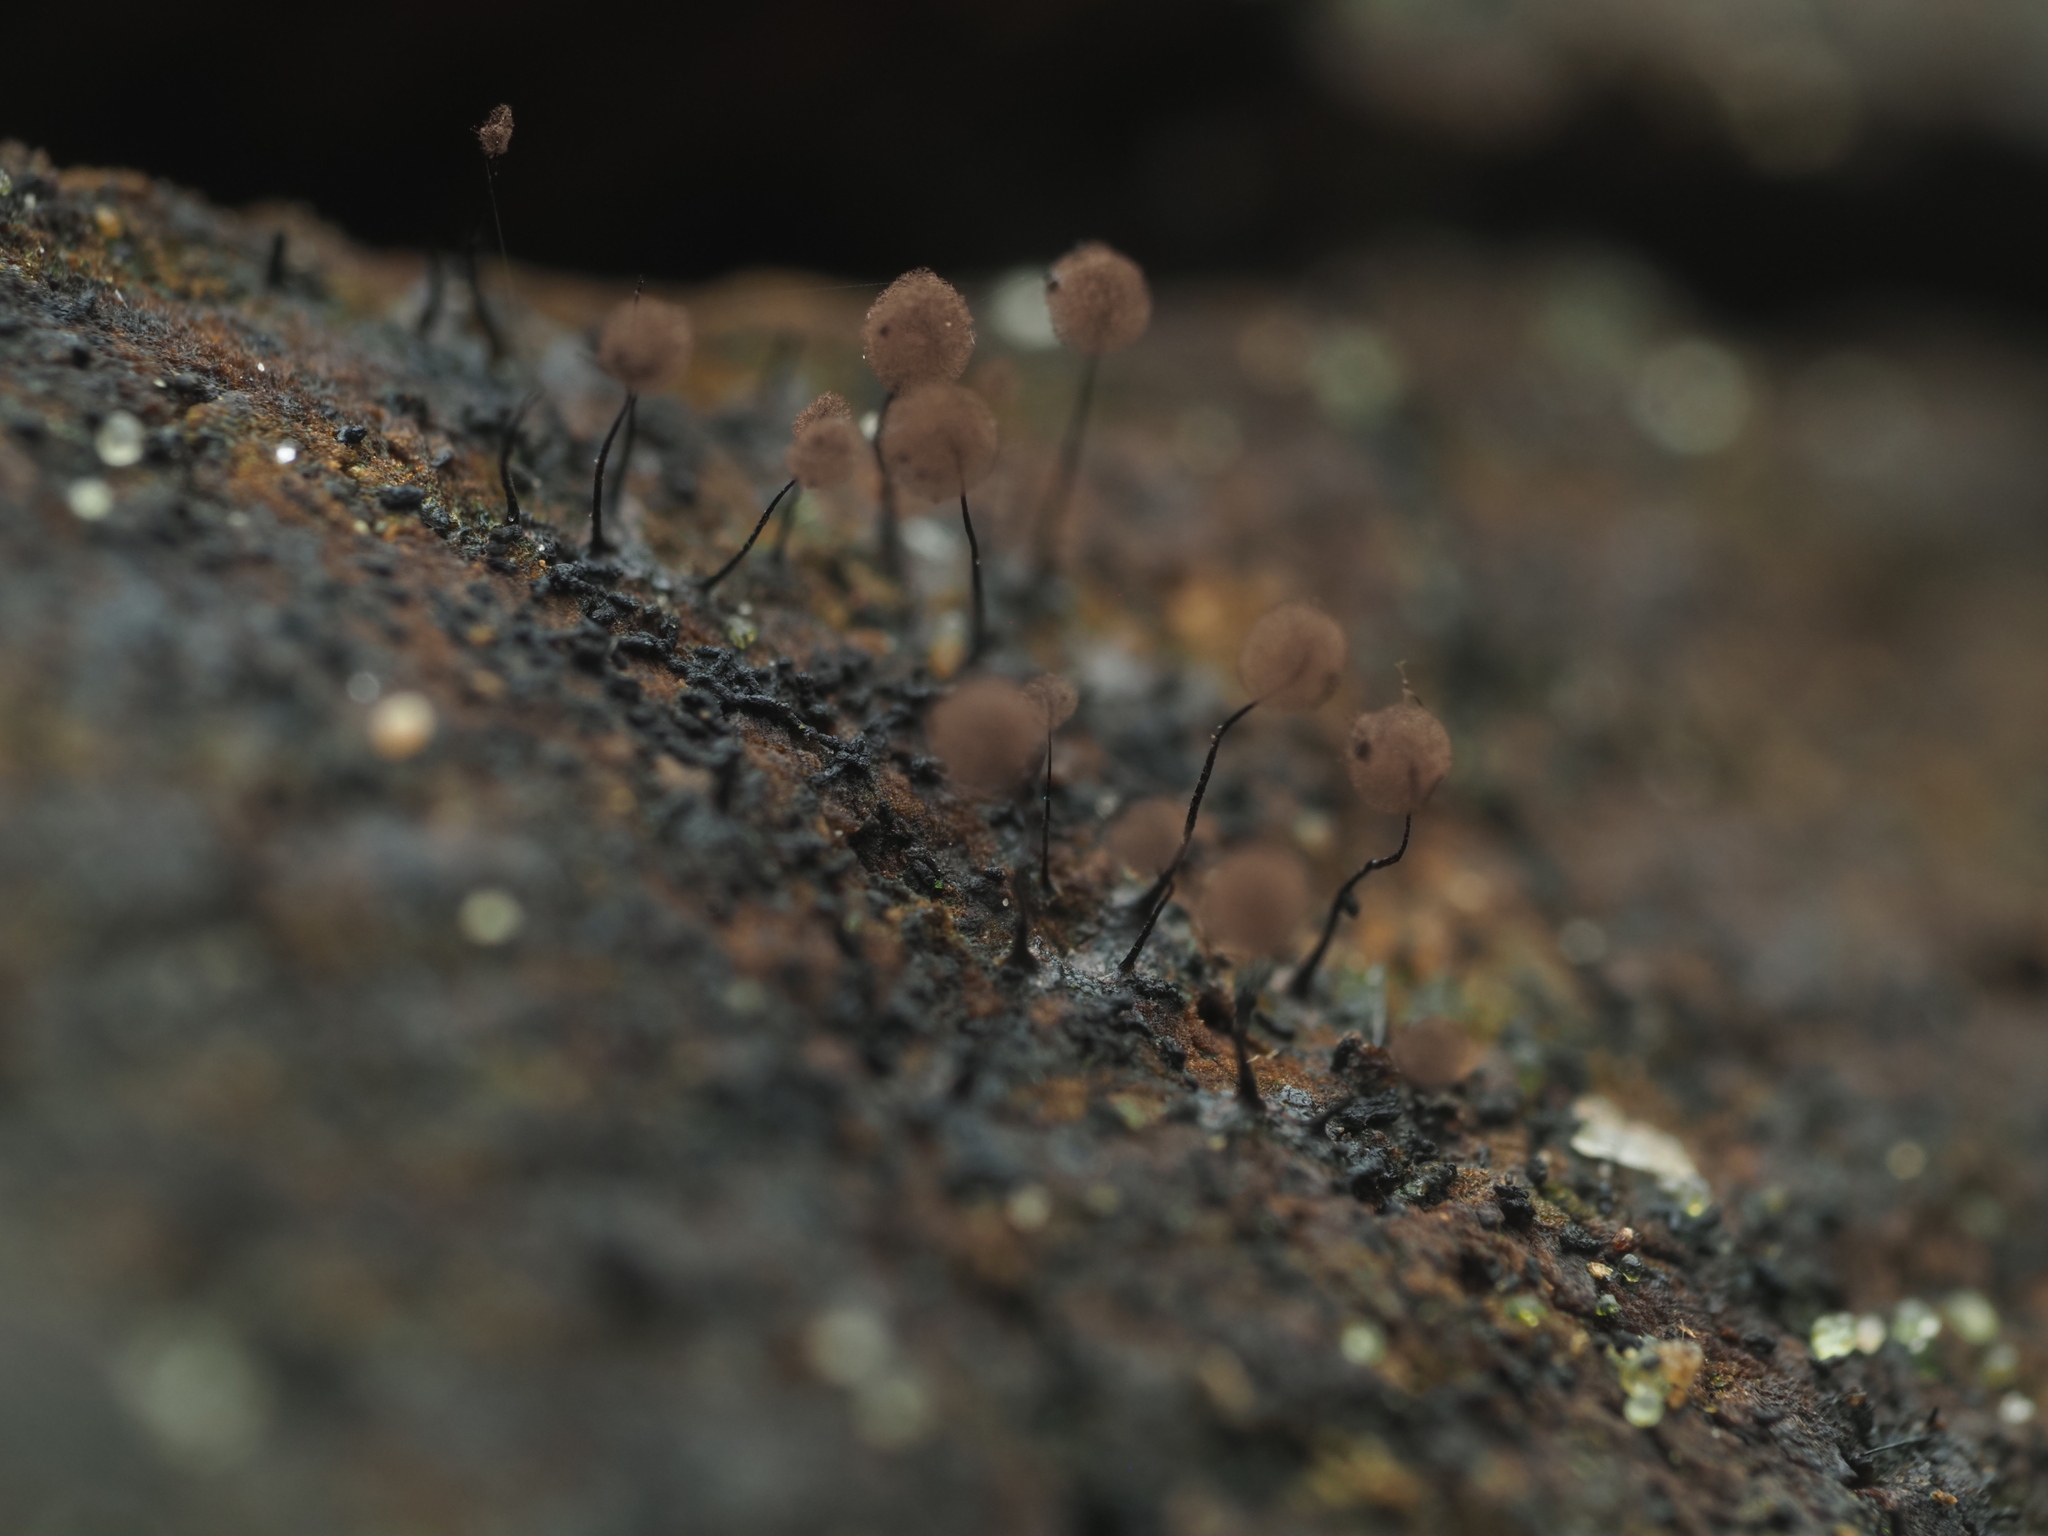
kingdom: Protozoa
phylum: Mycetozoa
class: Myxomycetes
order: Stemonitidales
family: Stemonitidaceae
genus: Comatricha
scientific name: Comatricha nigra
